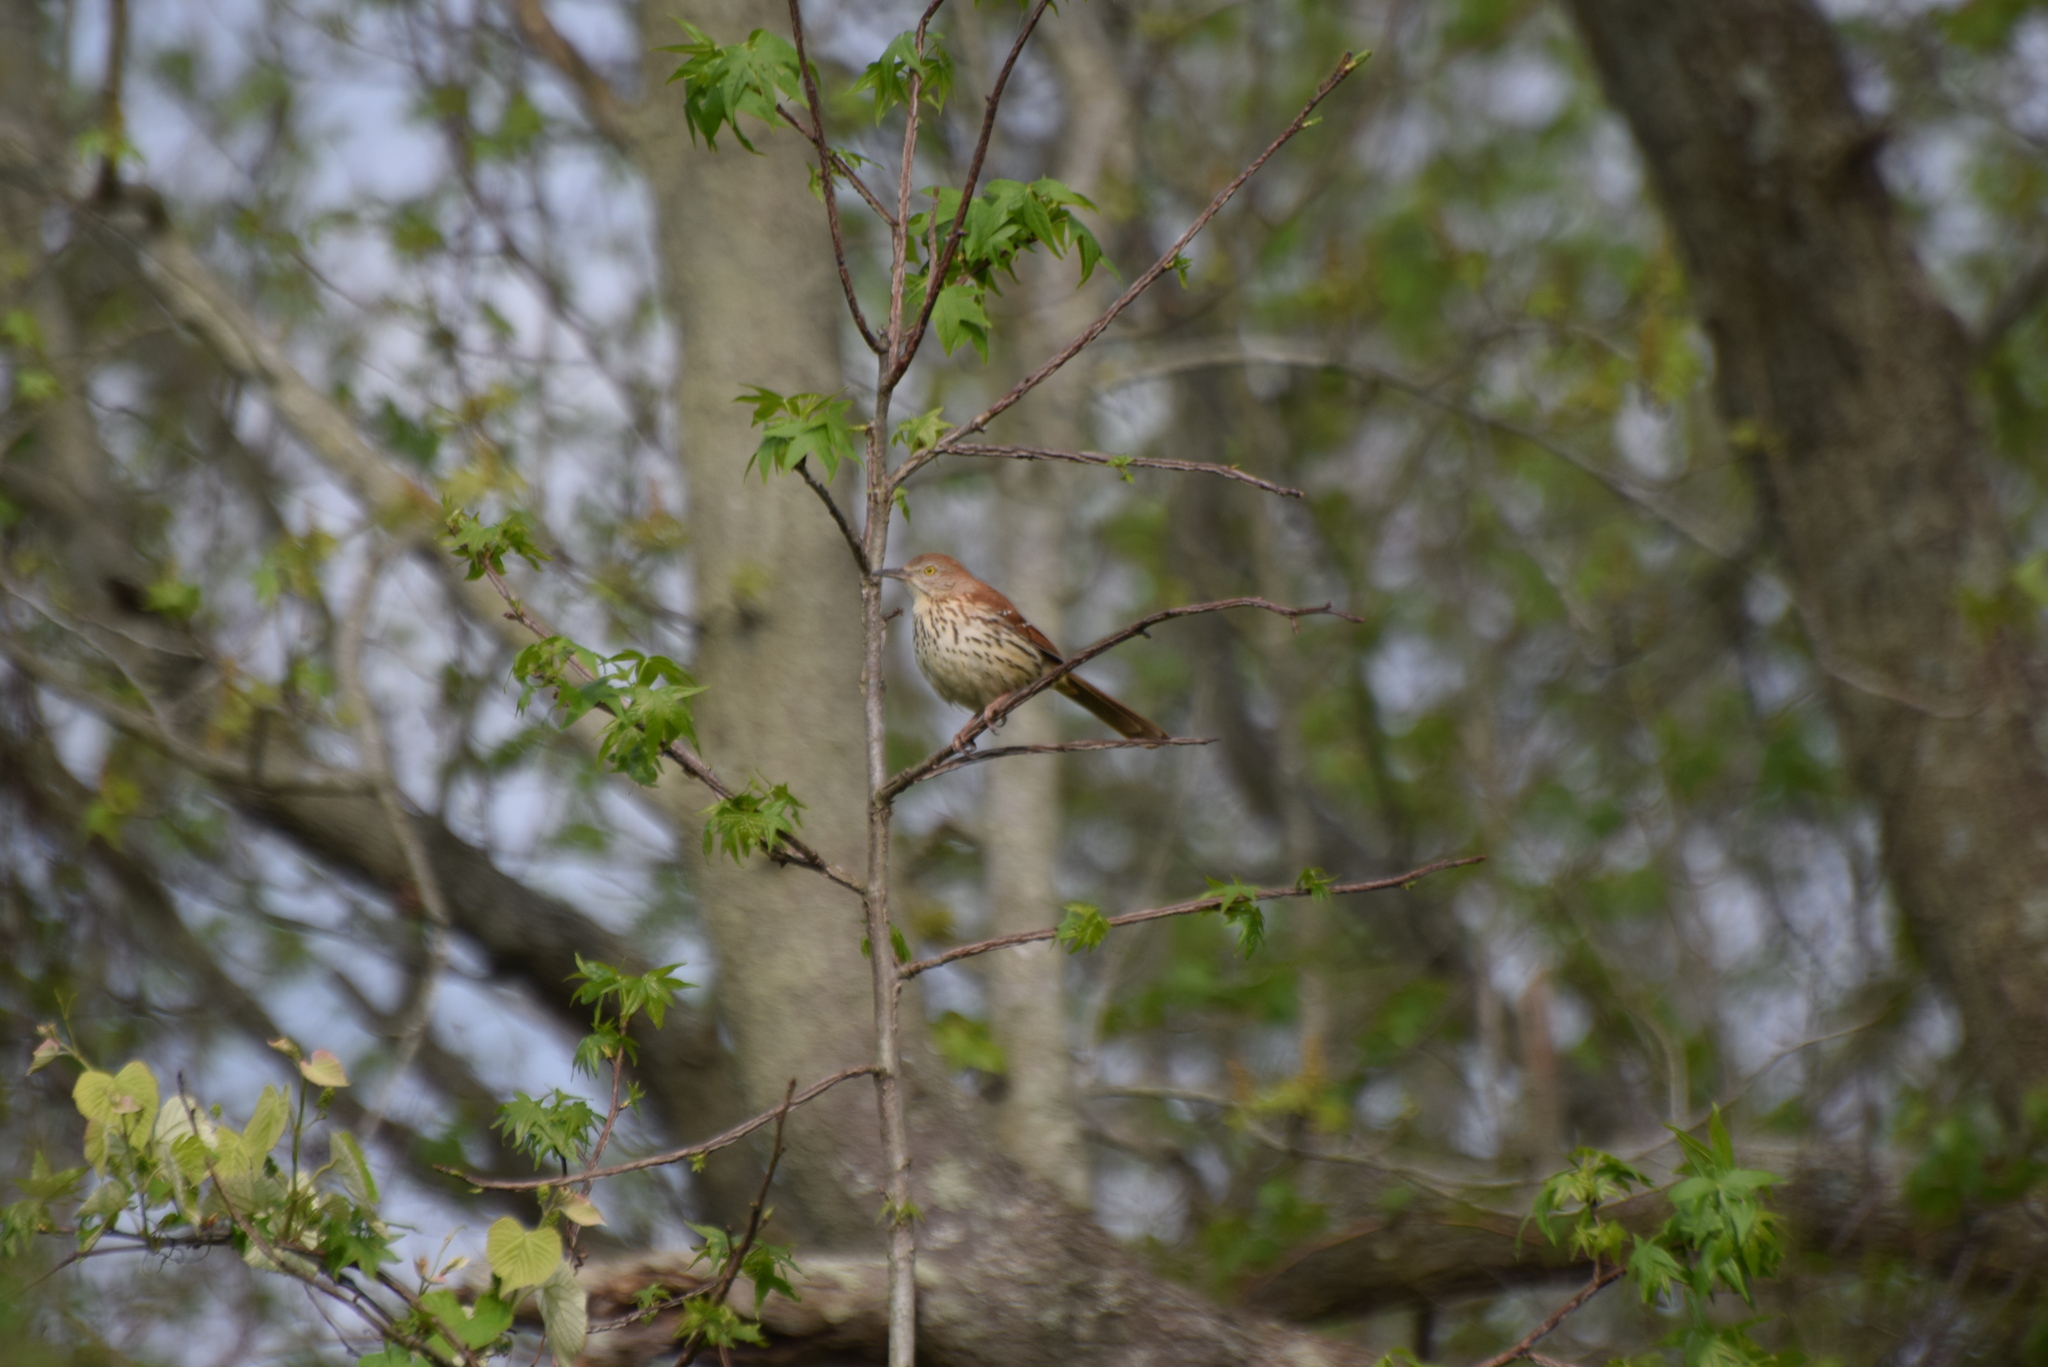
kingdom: Animalia
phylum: Chordata
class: Aves
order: Passeriformes
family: Mimidae
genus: Toxostoma
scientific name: Toxostoma rufum
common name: Brown thrasher
